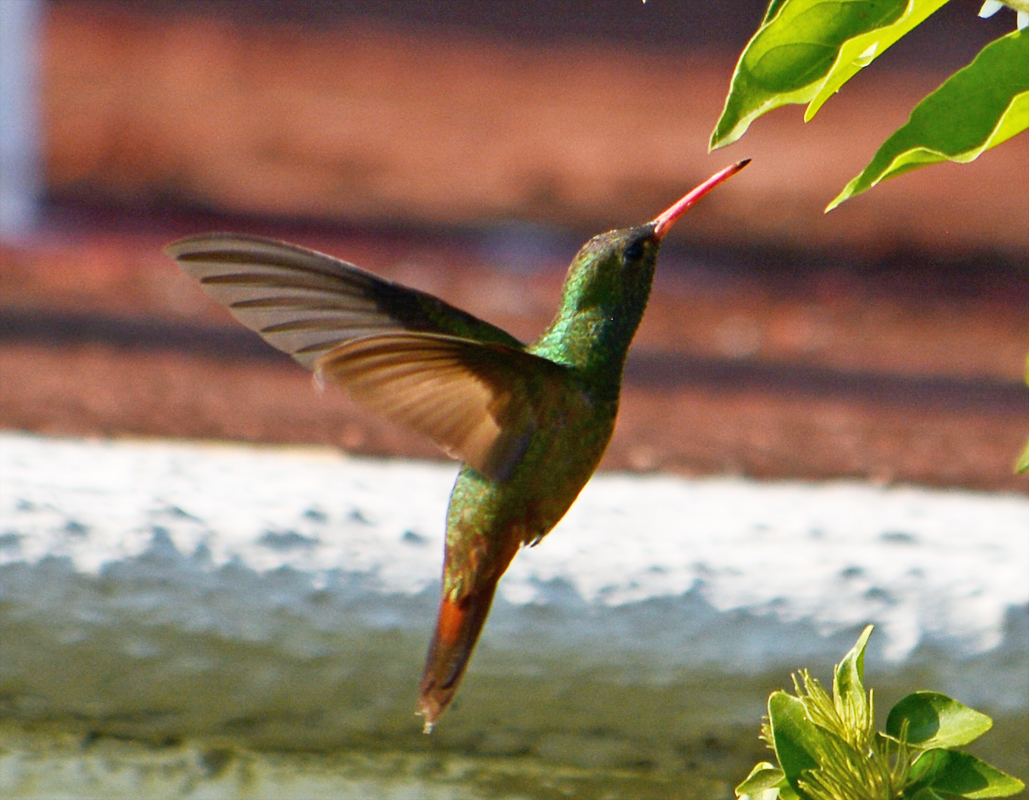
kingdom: Animalia
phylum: Chordata
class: Aves
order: Apodiformes
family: Trochilidae
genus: Amazilia
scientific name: Amazilia yucatanensis
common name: Buff-bellied hummingbird
